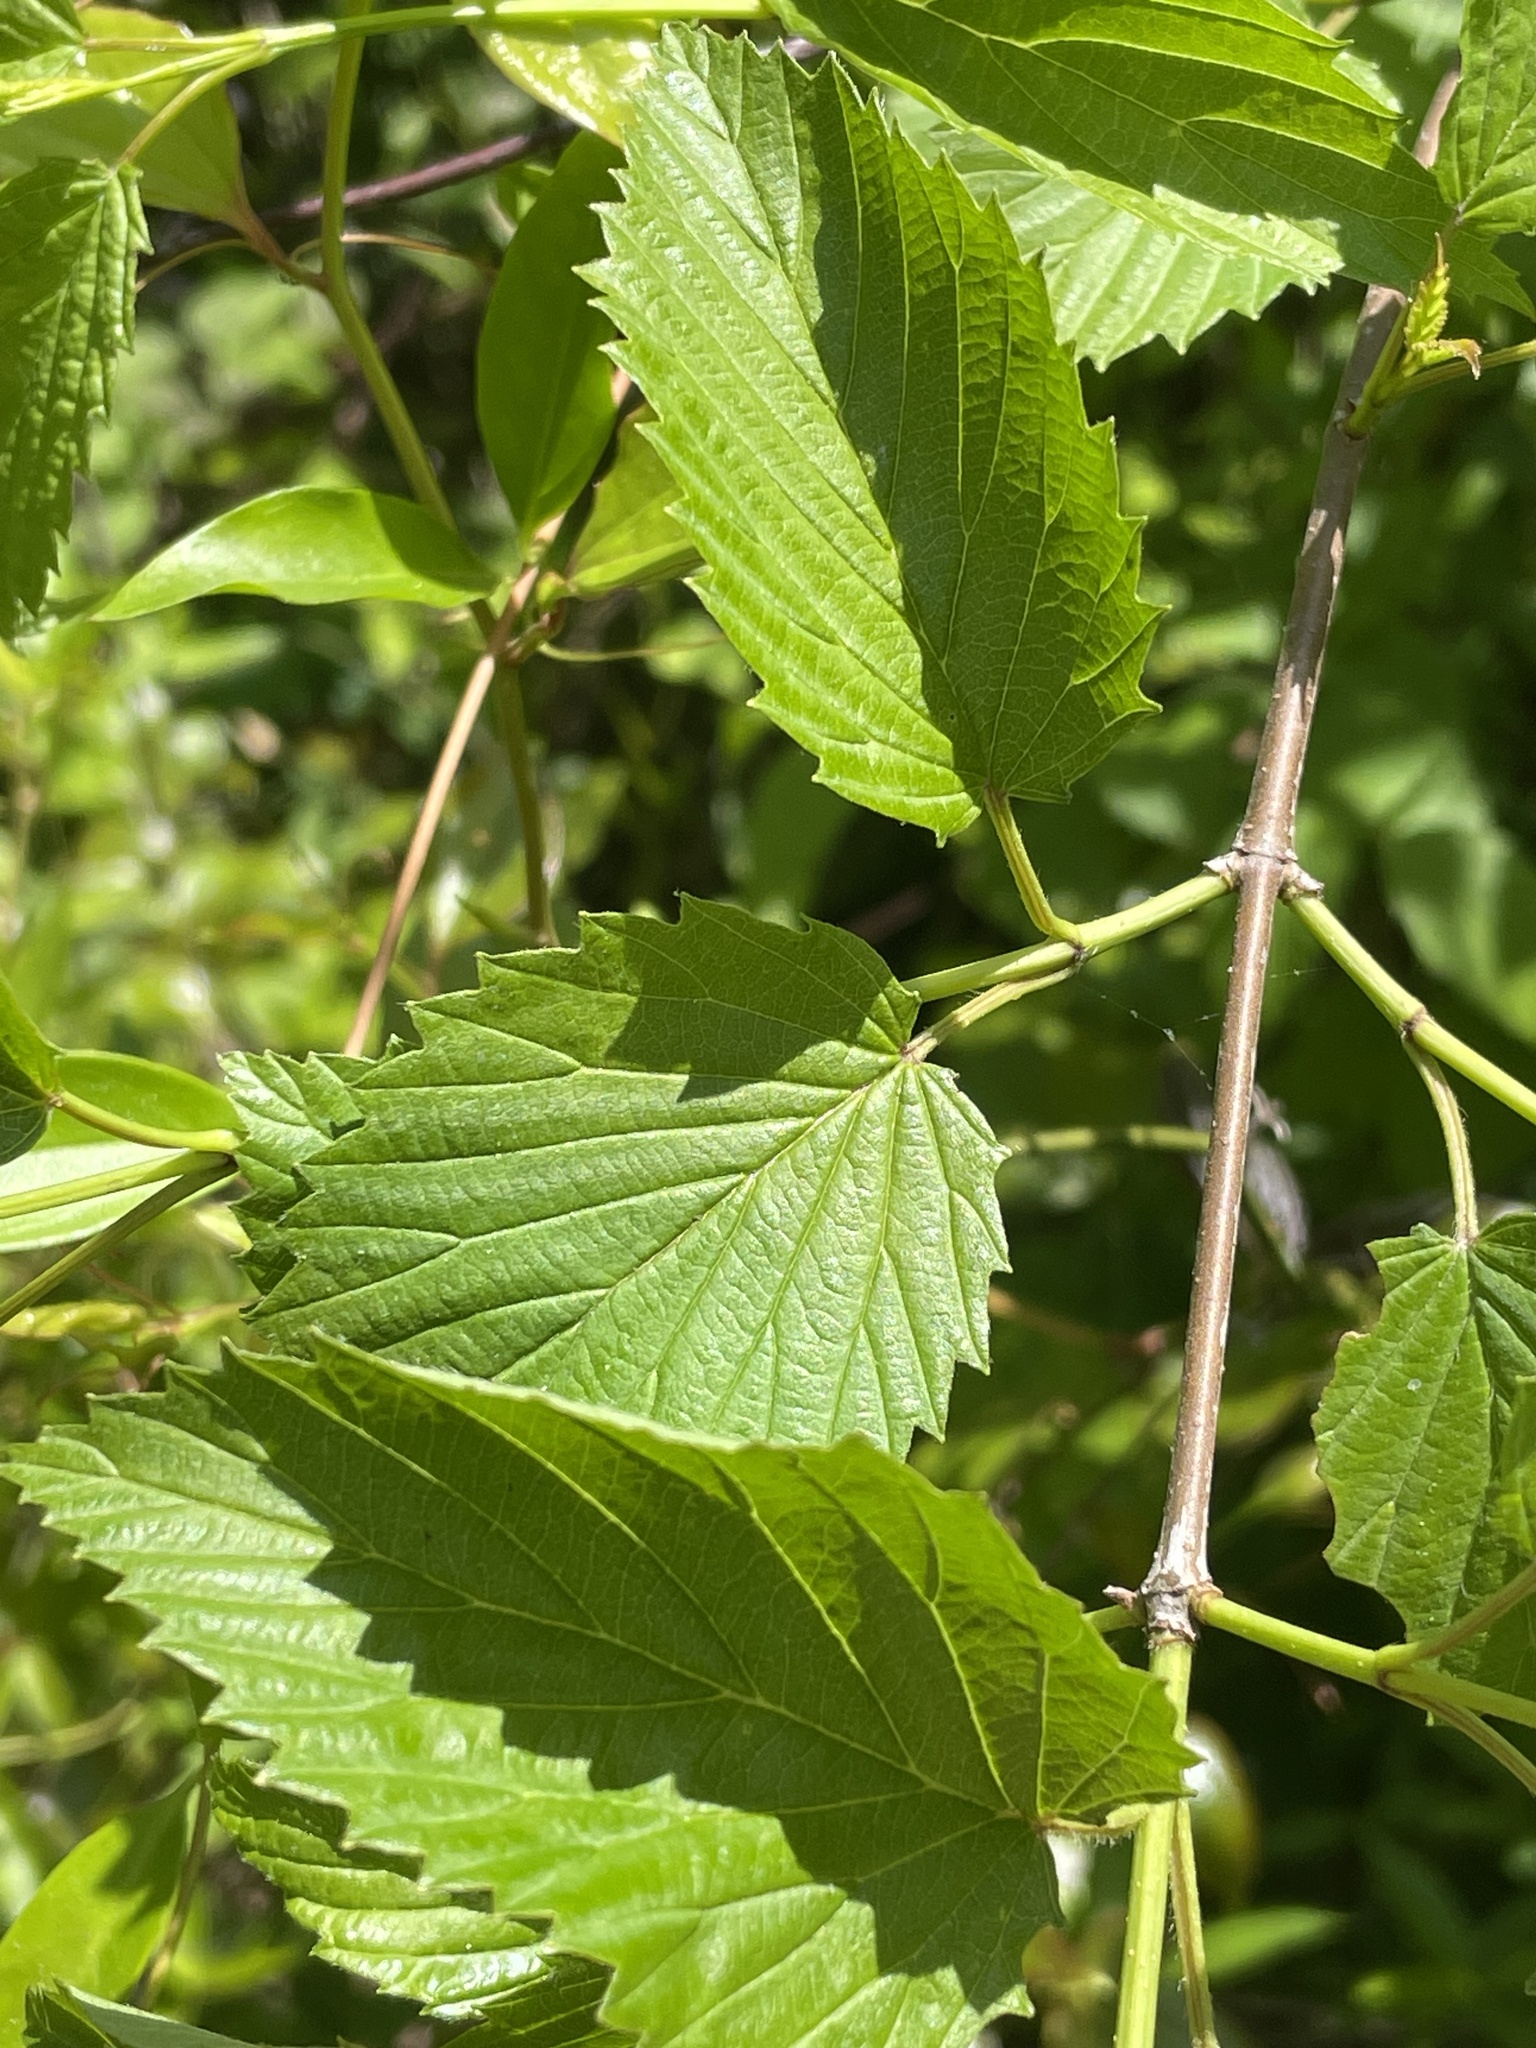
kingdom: Plantae
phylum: Tracheophyta
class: Magnoliopsida
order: Dipsacales
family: Viburnaceae
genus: Viburnum
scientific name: Viburnum recognitum
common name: Northern arrow-wood
